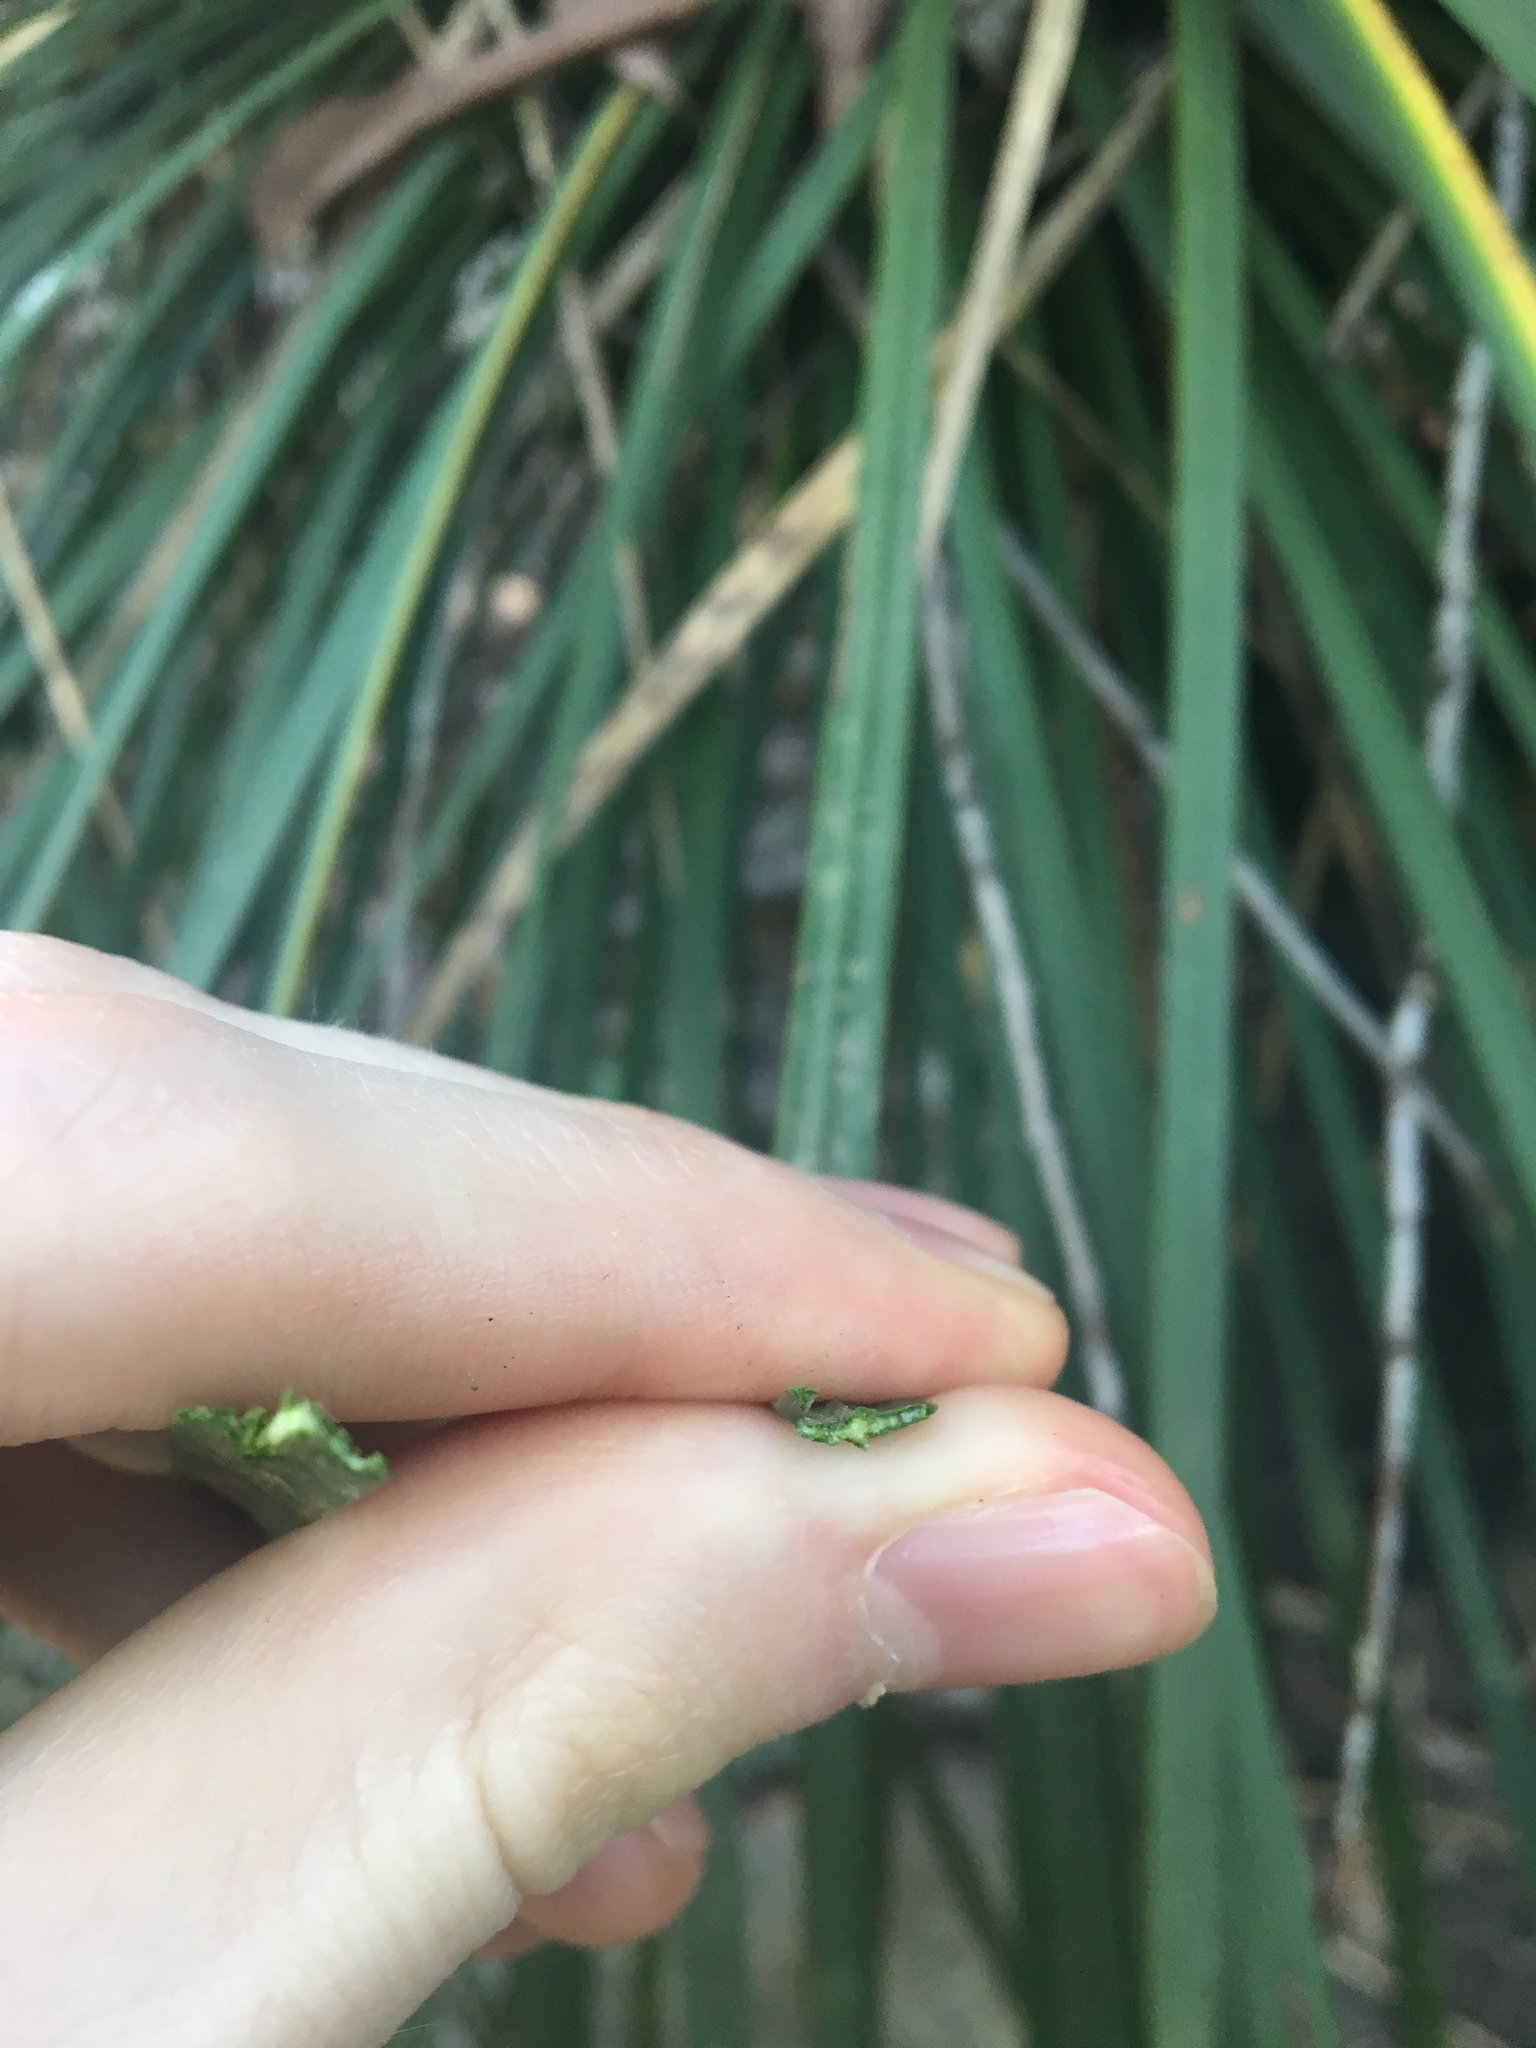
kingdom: Plantae
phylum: Tracheophyta
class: Liliopsida
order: Asparagales
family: Asphodelaceae
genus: Xanthorrhoea
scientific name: Xanthorrhoea arborea
